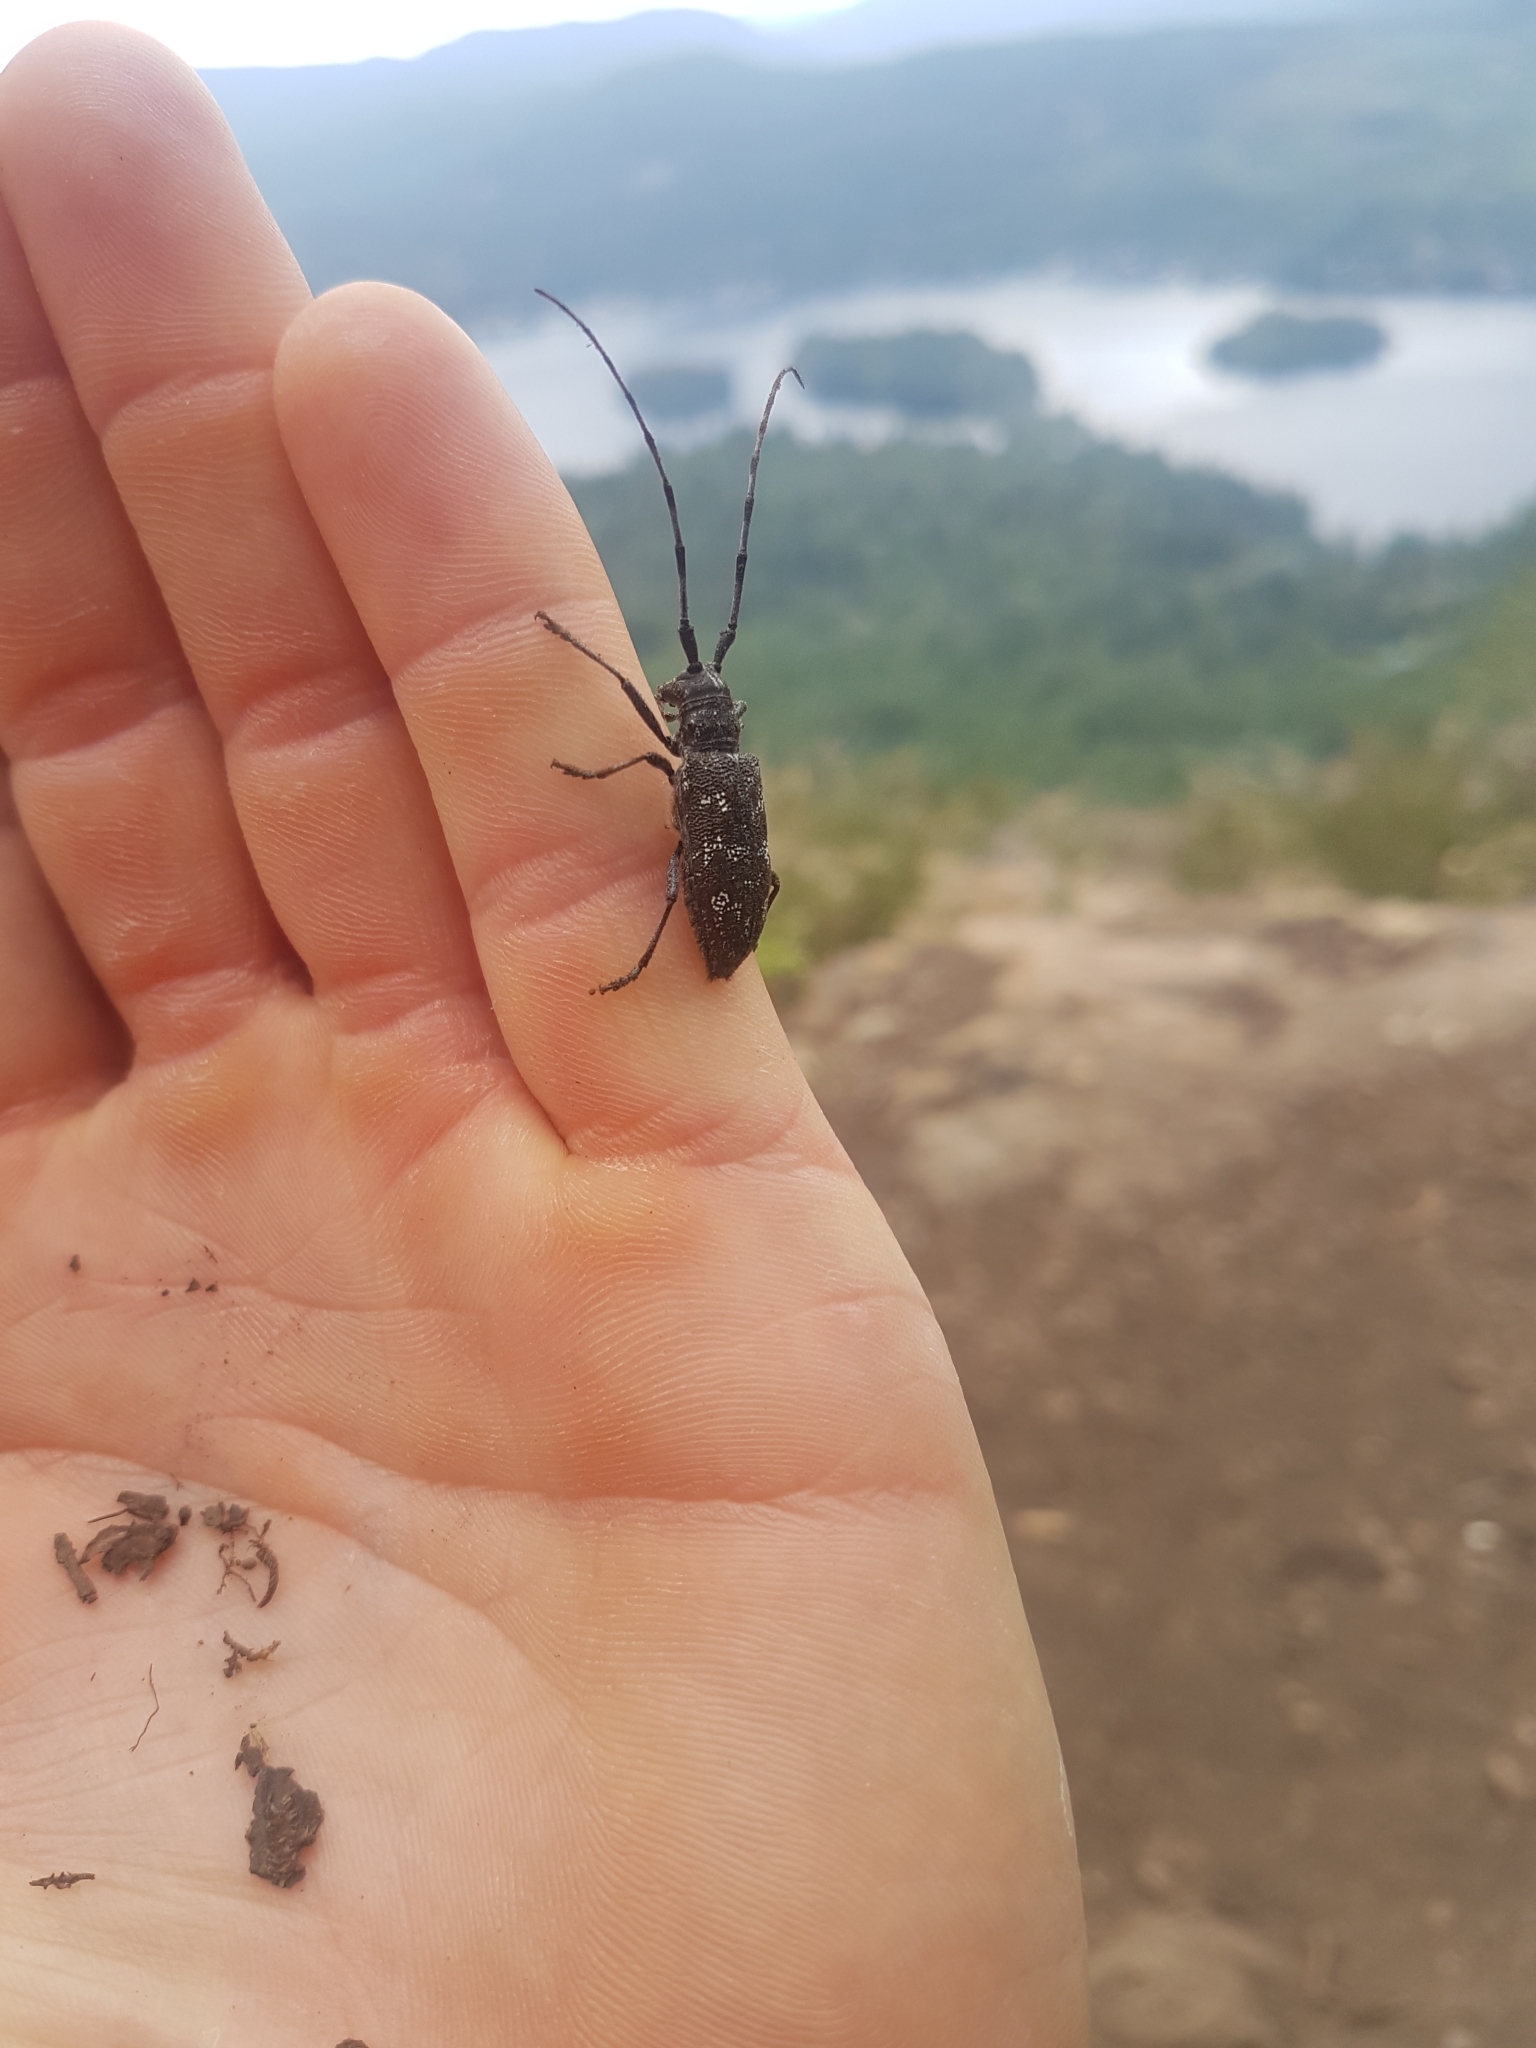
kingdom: Animalia
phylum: Arthropoda
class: Insecta
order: Coleoptera
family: Cerambycidae
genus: Monochamus
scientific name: Monochamus scutellatus
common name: White-spotted sawyer beetle
